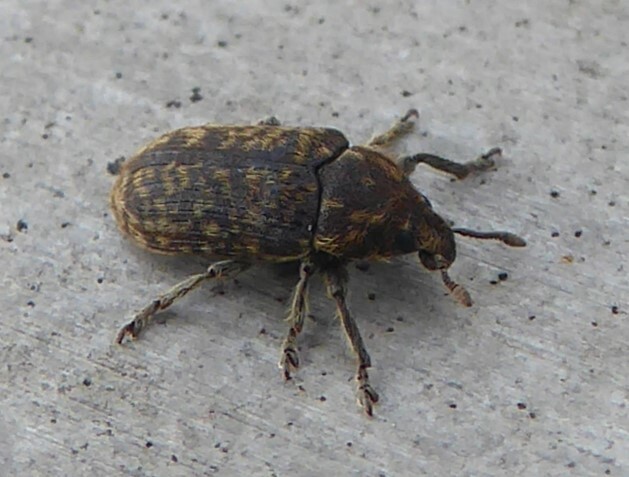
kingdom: Animalia
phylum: Arthropoda
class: Insecta
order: Coleoptera
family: Curculionidae
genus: Rhinocyllus
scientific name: Rhinocyllus conicus
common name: Weevil
